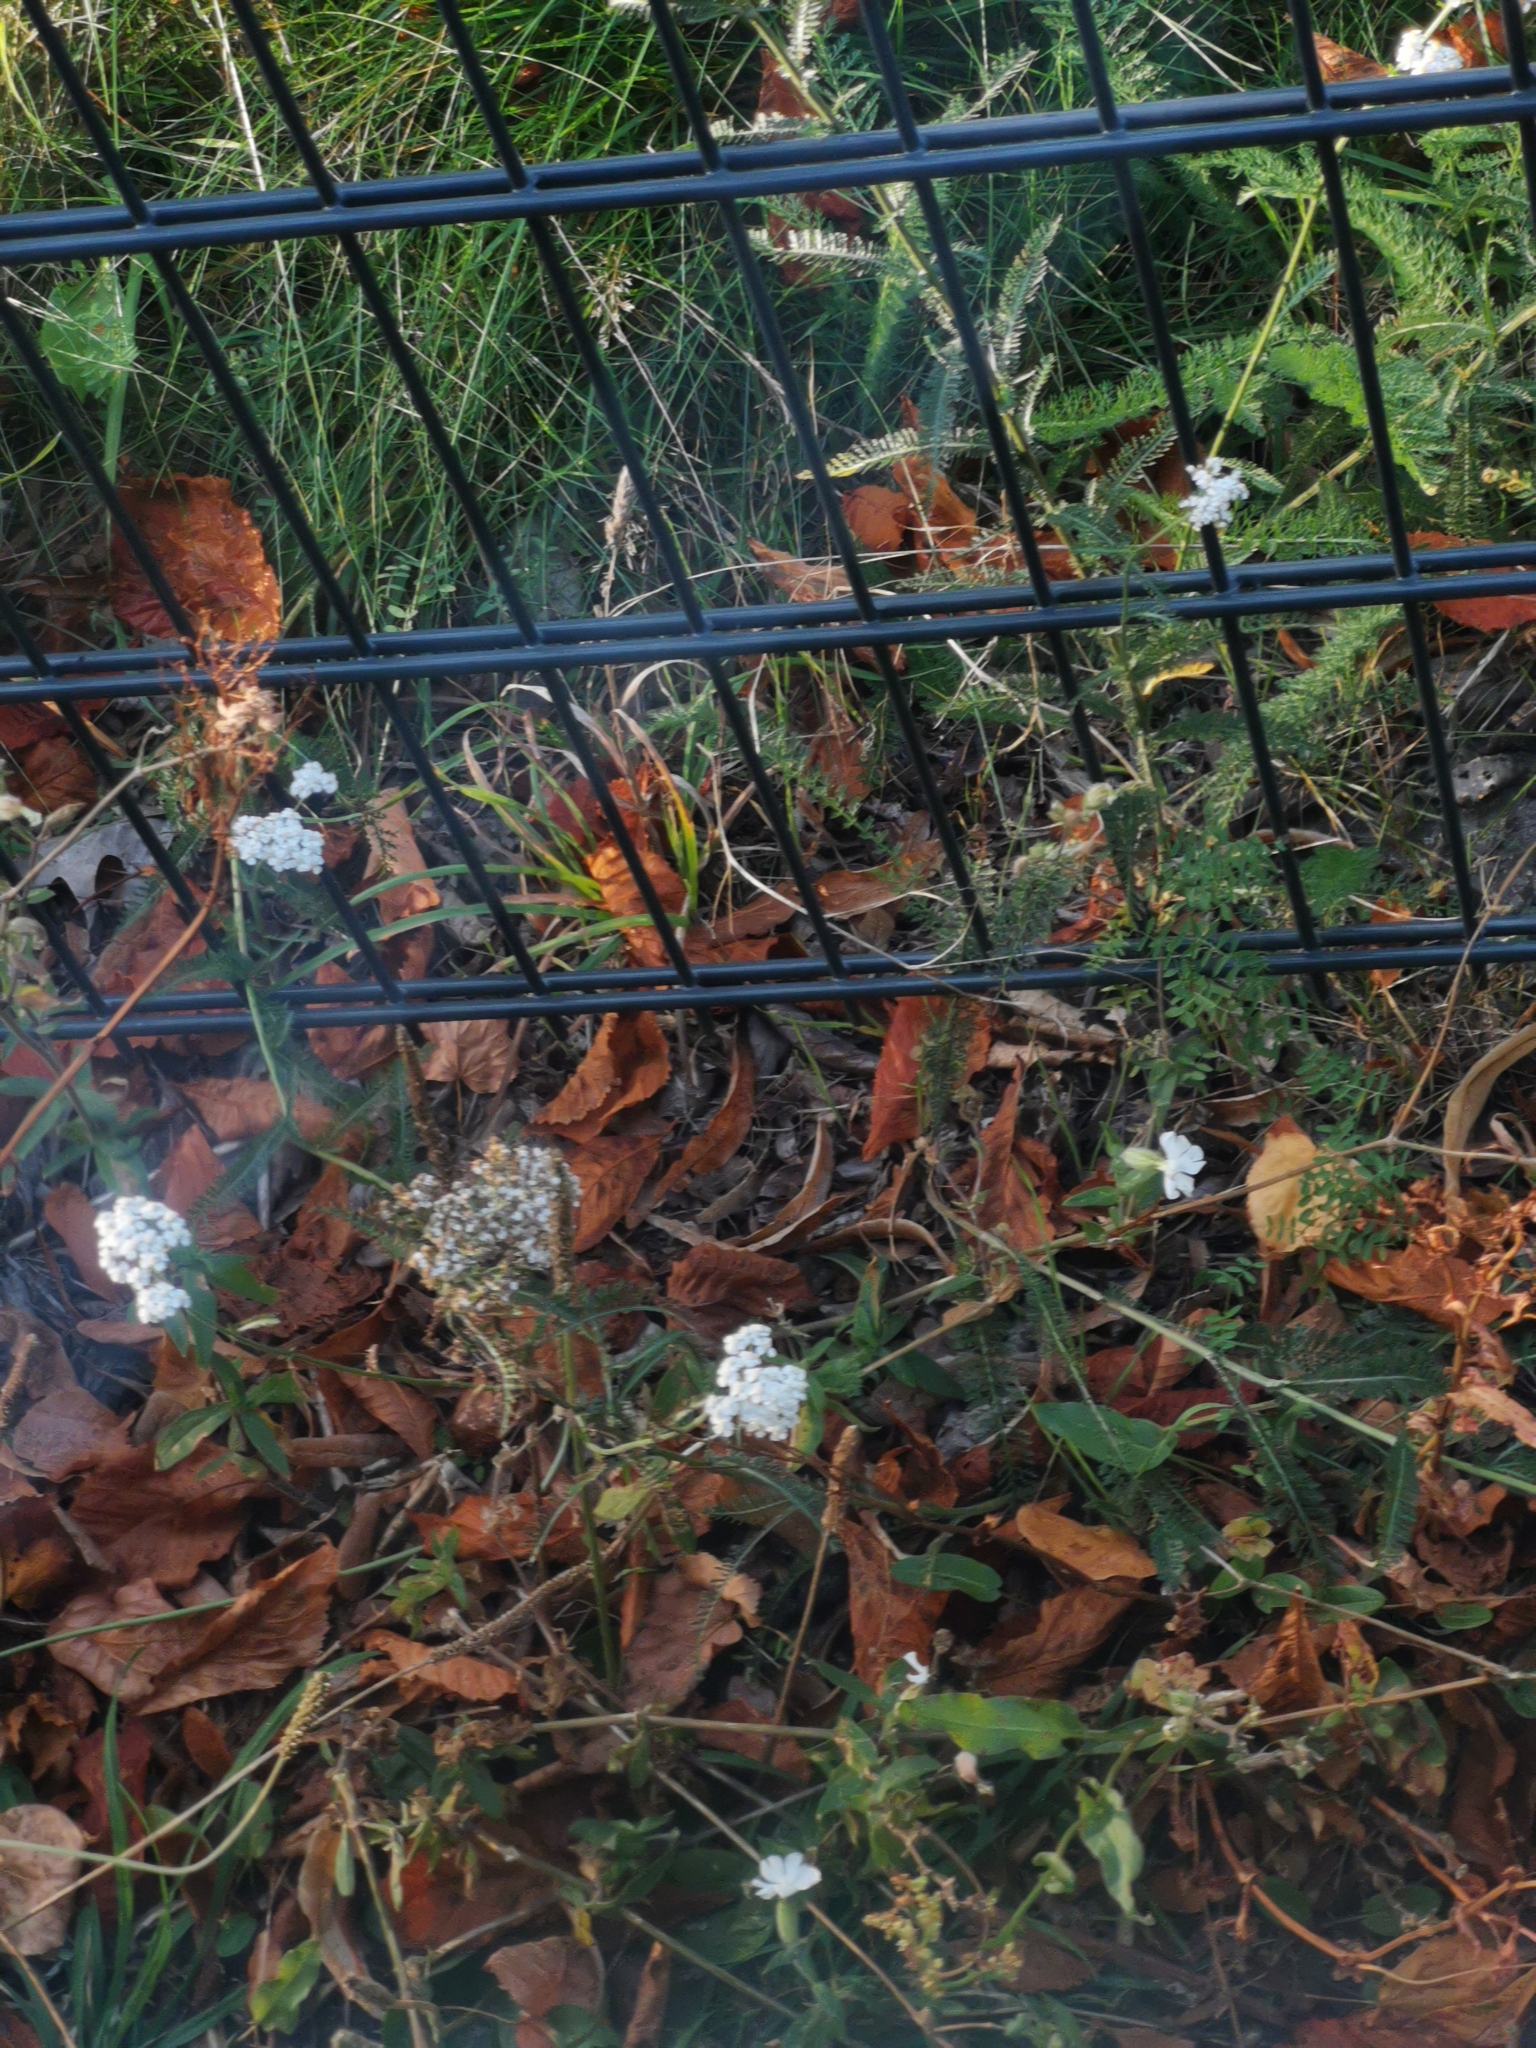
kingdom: Plantae
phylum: Tracheophyta
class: Magnoliopsida
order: Asterales
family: Asteraceae
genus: Achillea
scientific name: Achillea millefolium
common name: Yarrow
